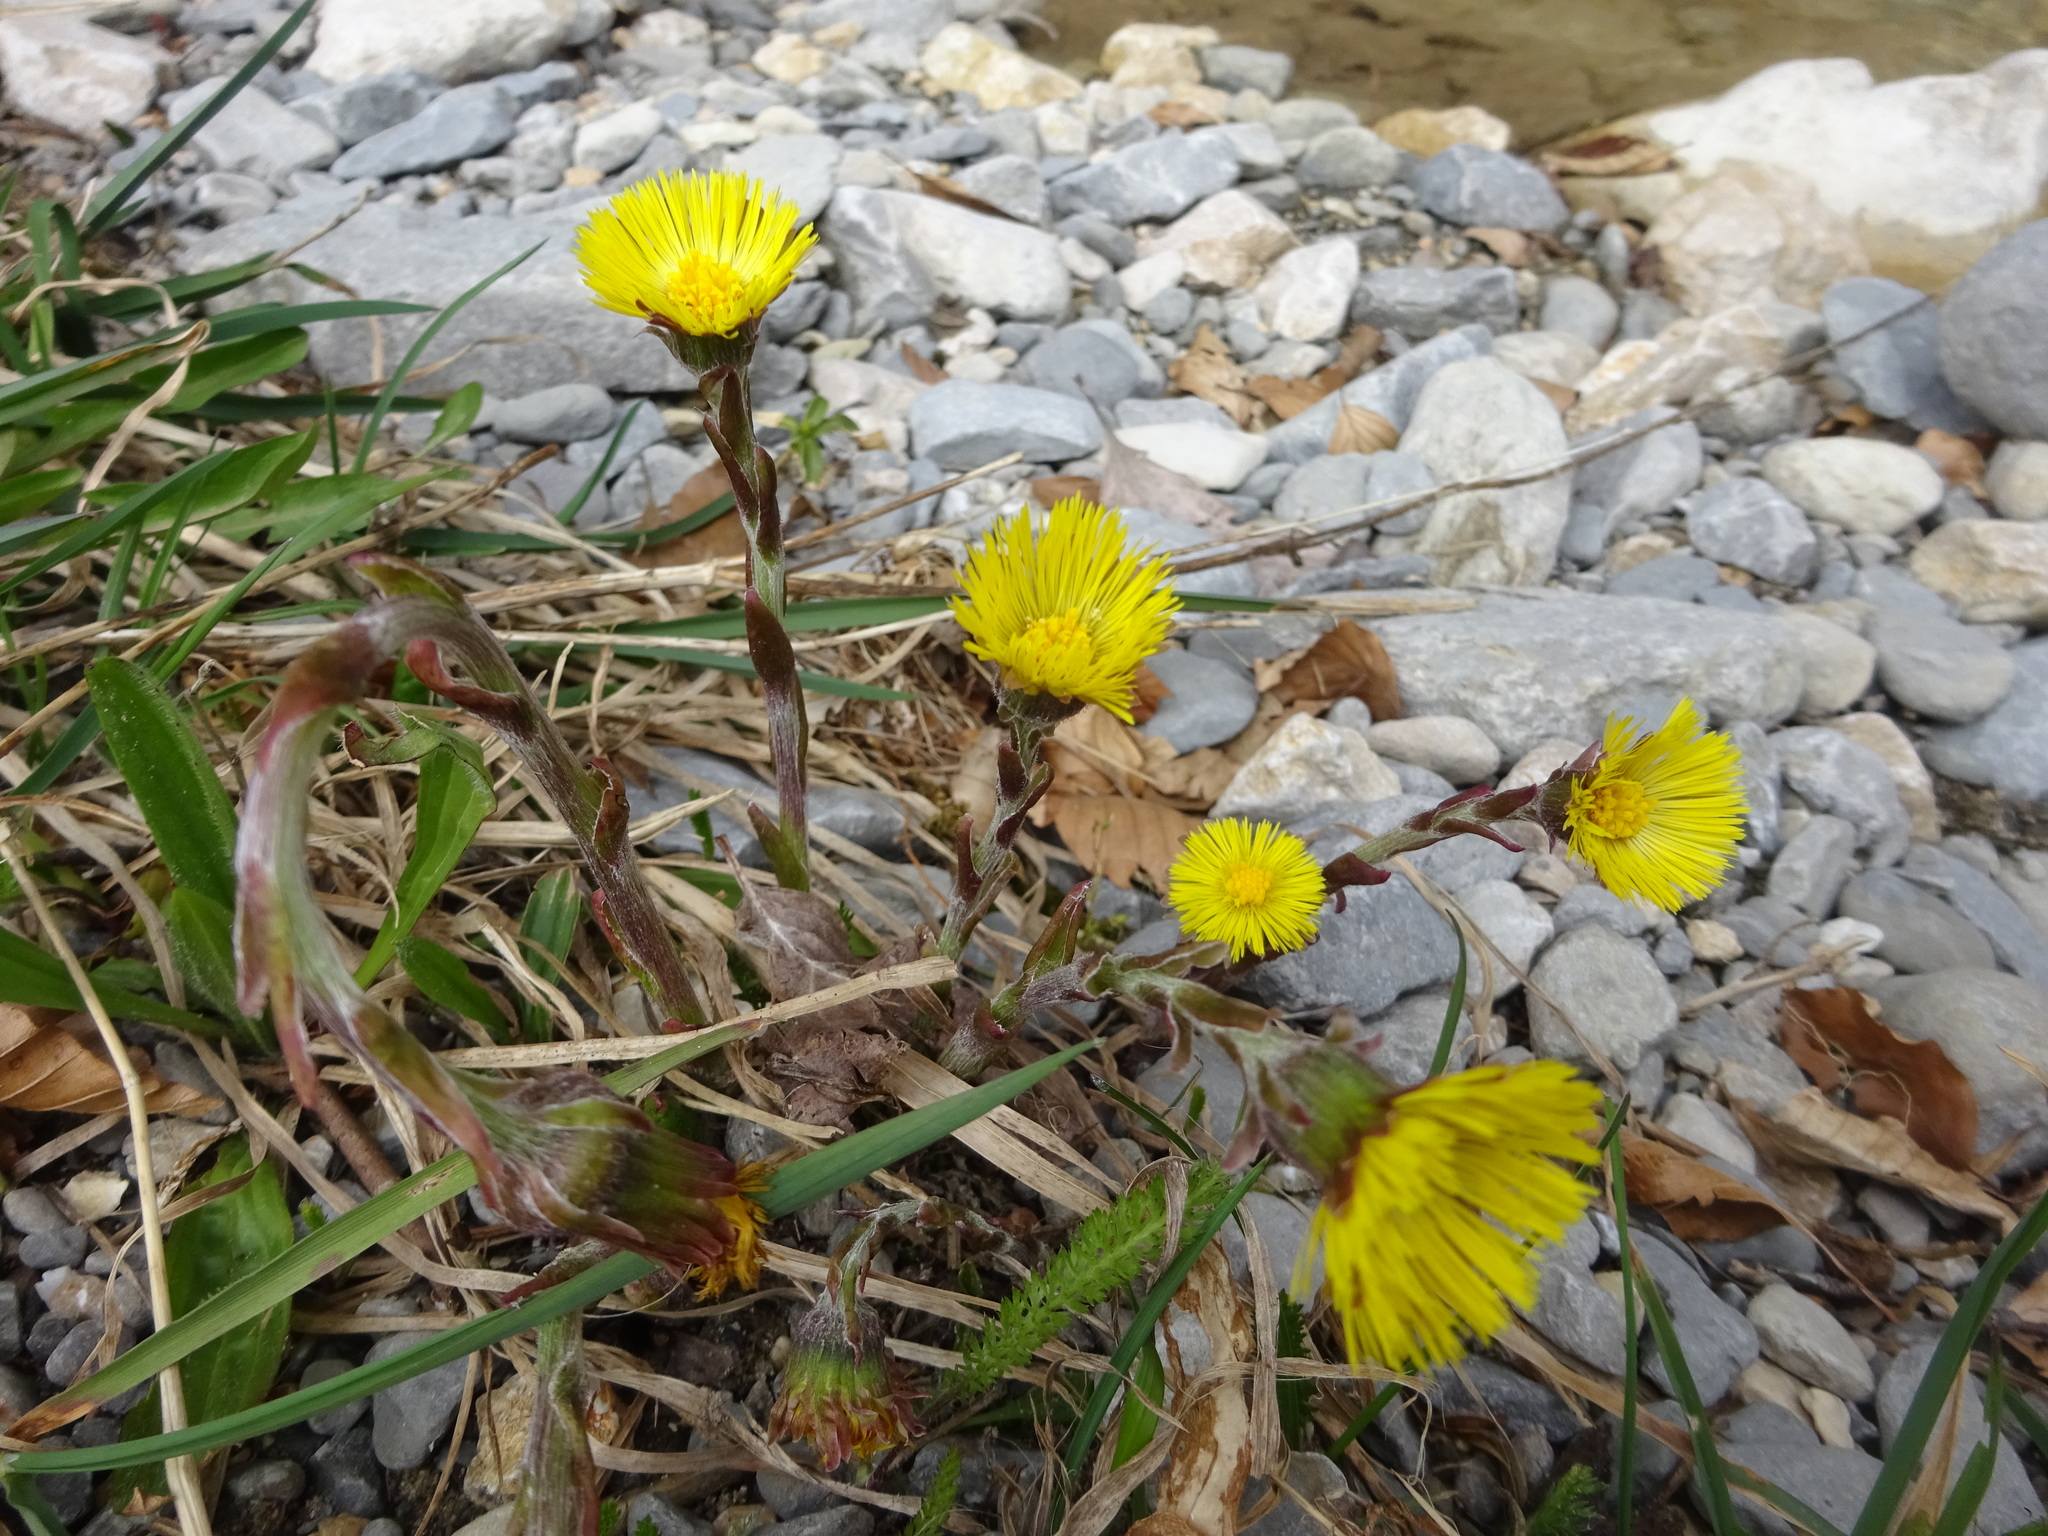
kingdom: Plantae
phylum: Tracheophyta
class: Magnoliopsida
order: Asterales
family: Asteraceae
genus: Tussilago
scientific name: Tussilago farfara
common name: Coltsfoot
